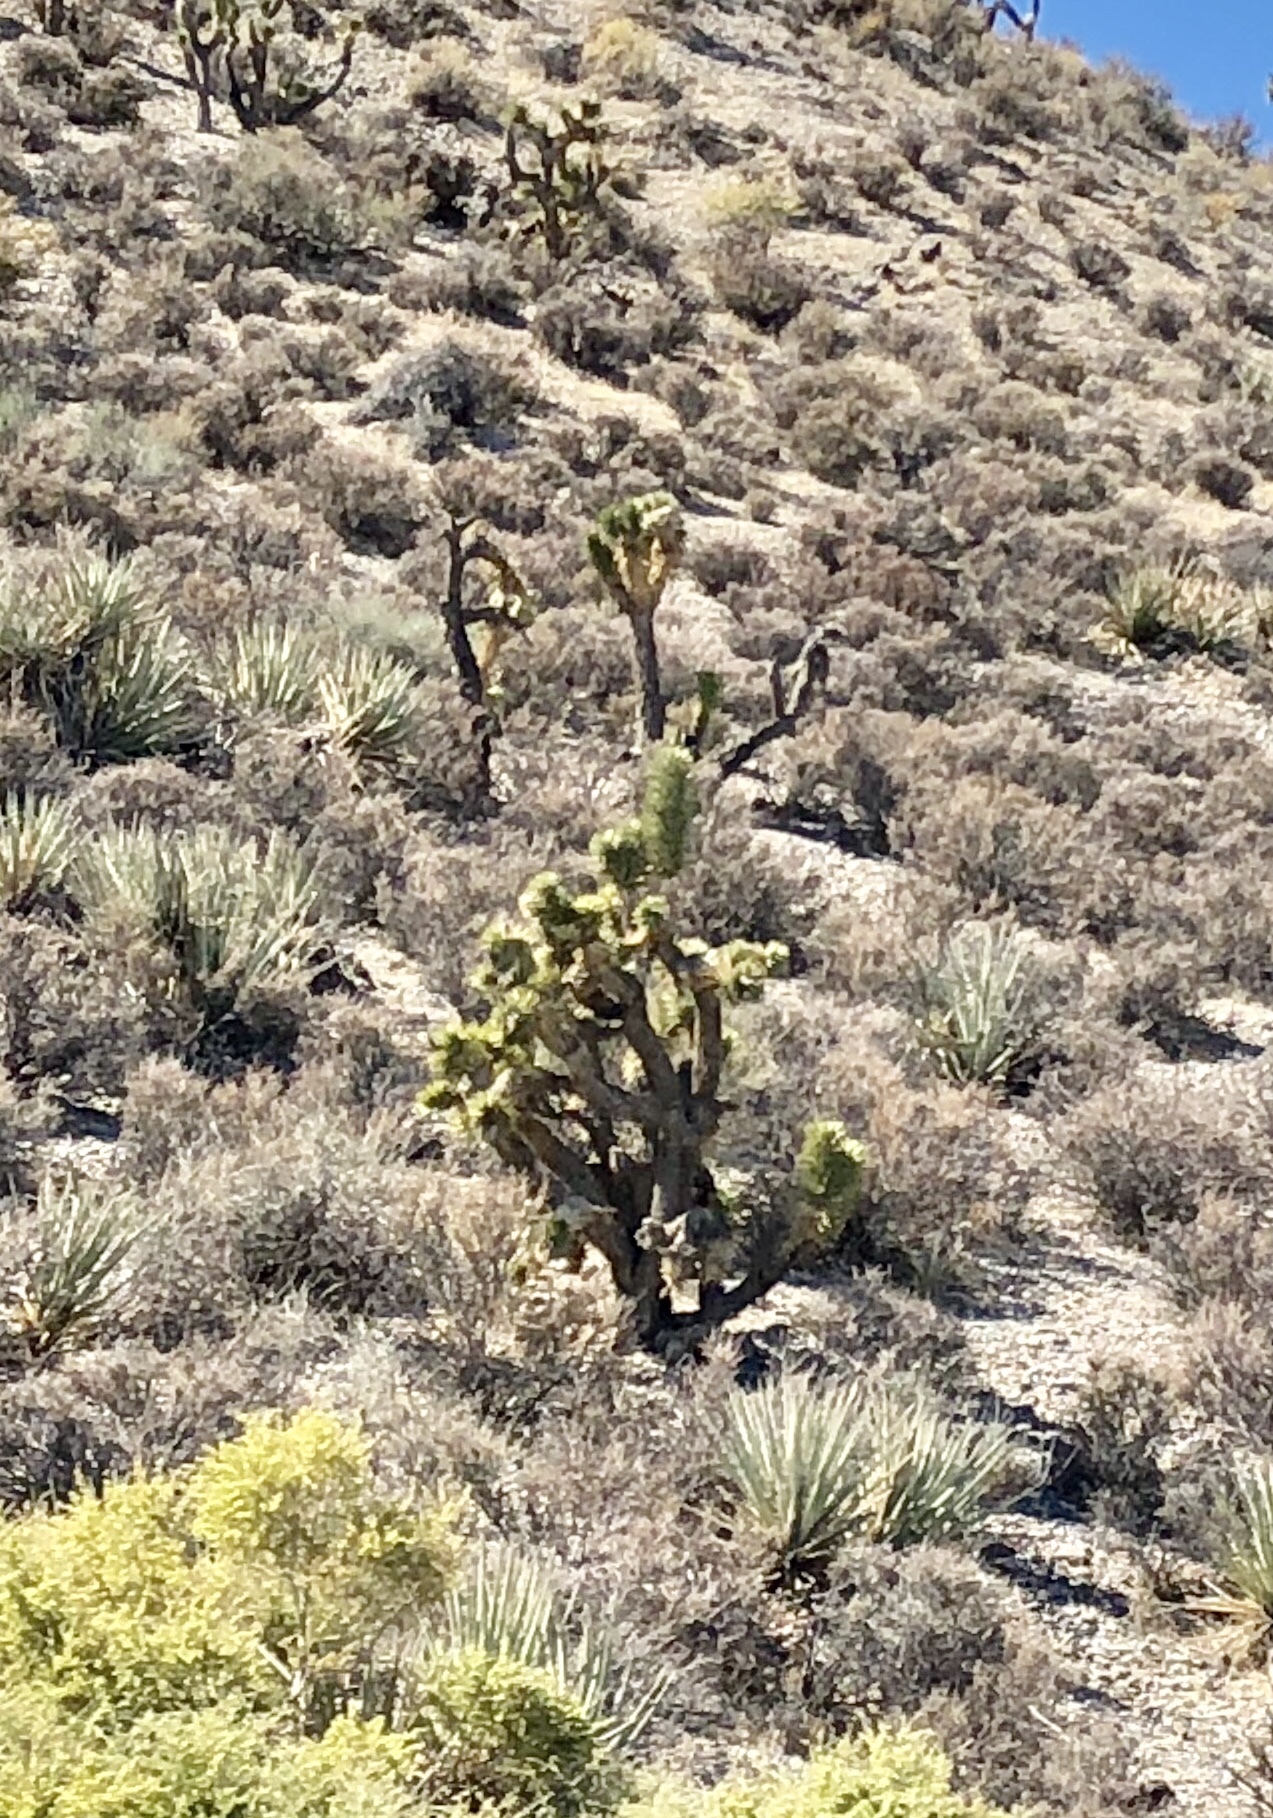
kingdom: Plantae
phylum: Tracheophyta
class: Liliopsida
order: Asparagales
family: Asparagaceae
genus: Yucca
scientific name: Yucca brevifolia
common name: Joshua tree
